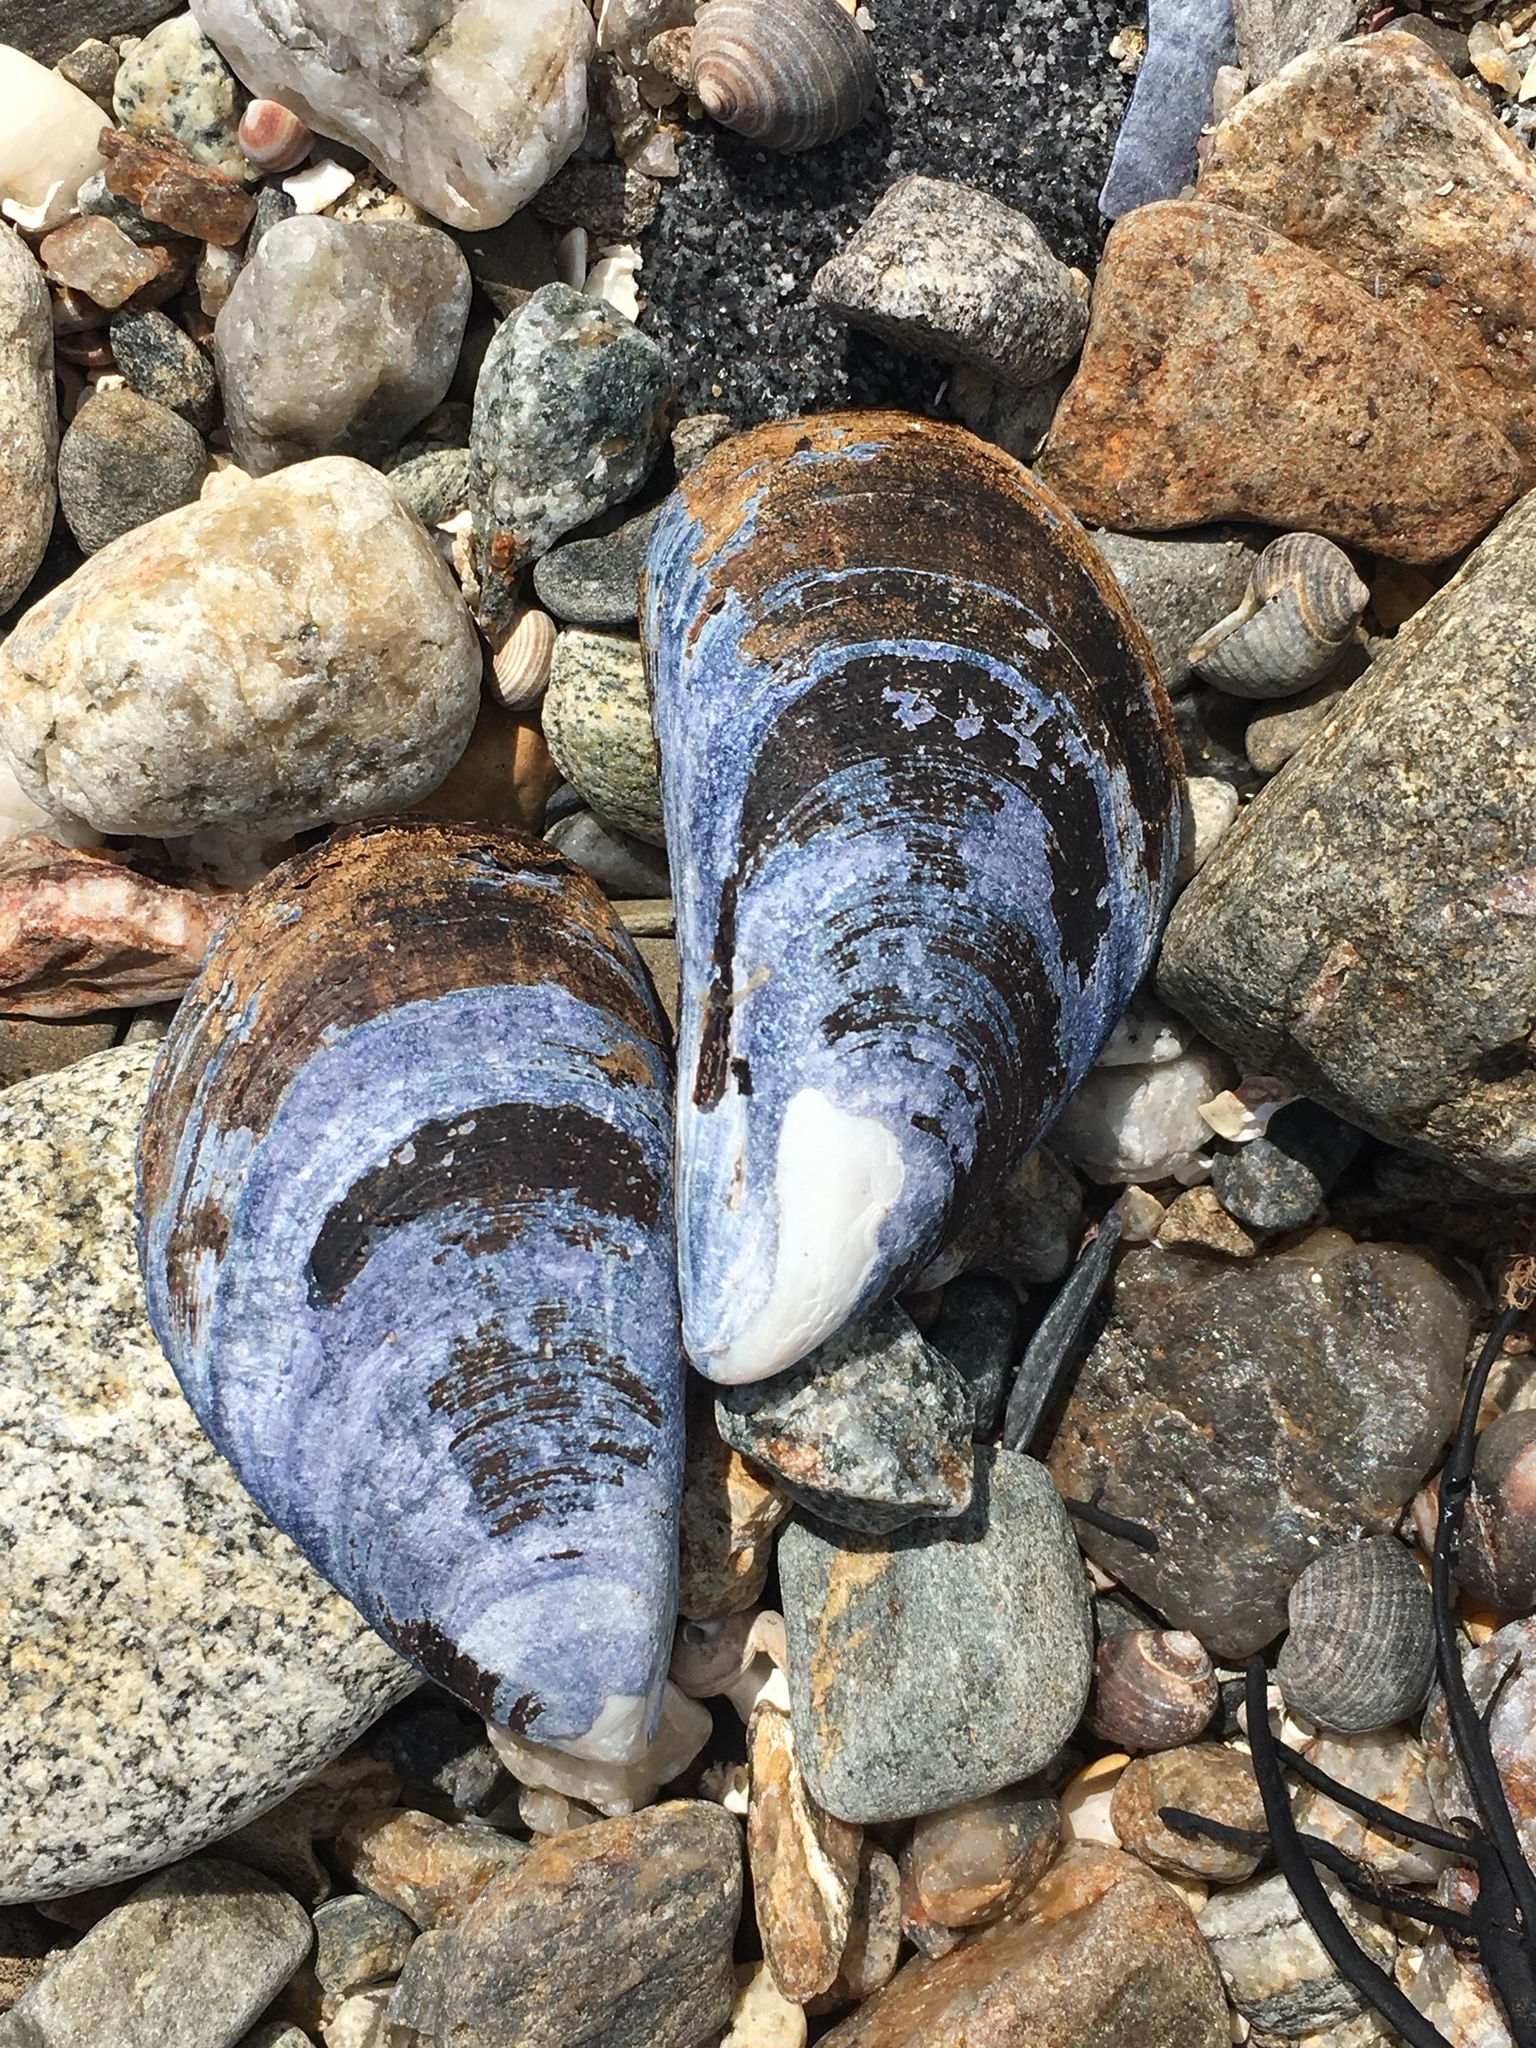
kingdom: Animalia
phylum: Mollusca
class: Bivalvia
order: Mytilida
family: Mytilidae
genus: Mytilus
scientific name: Mytilus edulis
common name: Blue mussel
